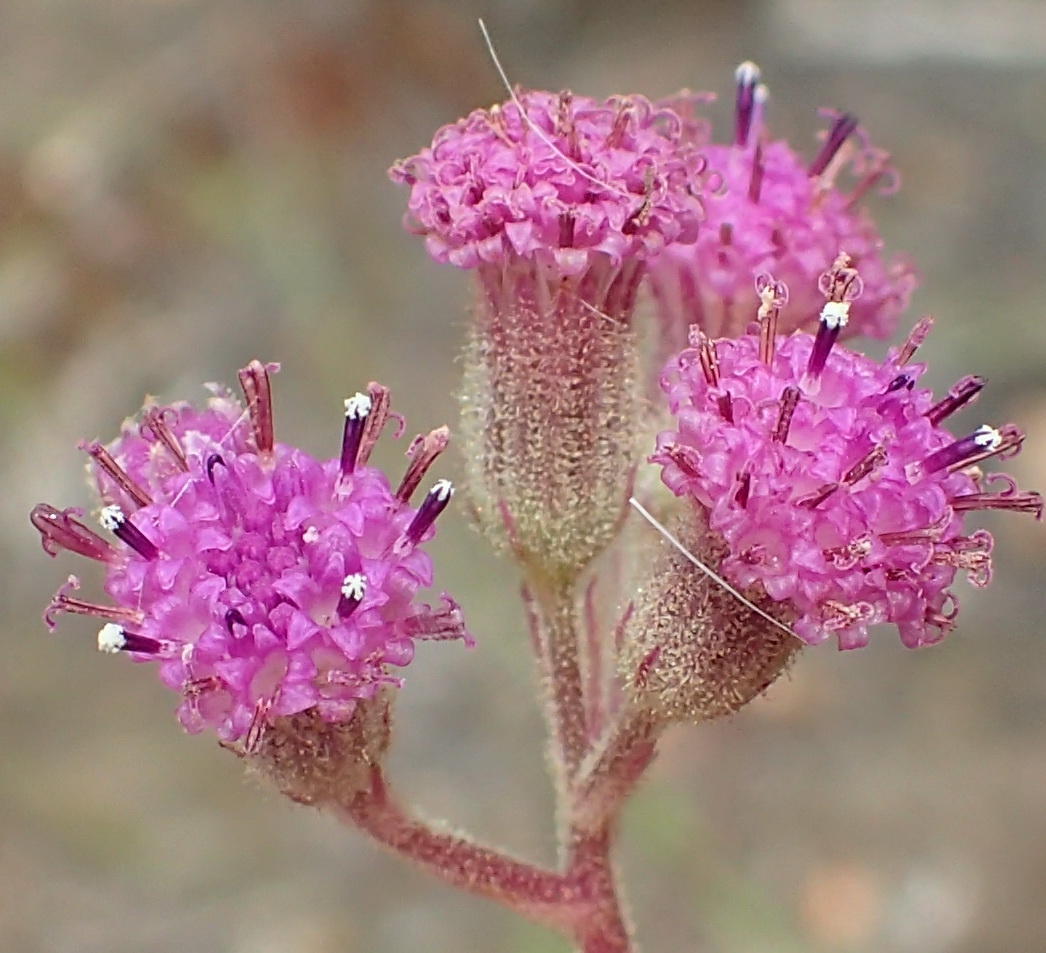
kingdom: Plantae
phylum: Tracheophyta
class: Magnoliopsida
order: Asterales
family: Asteraceae
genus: Senecio
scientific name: Senecio purpureus
